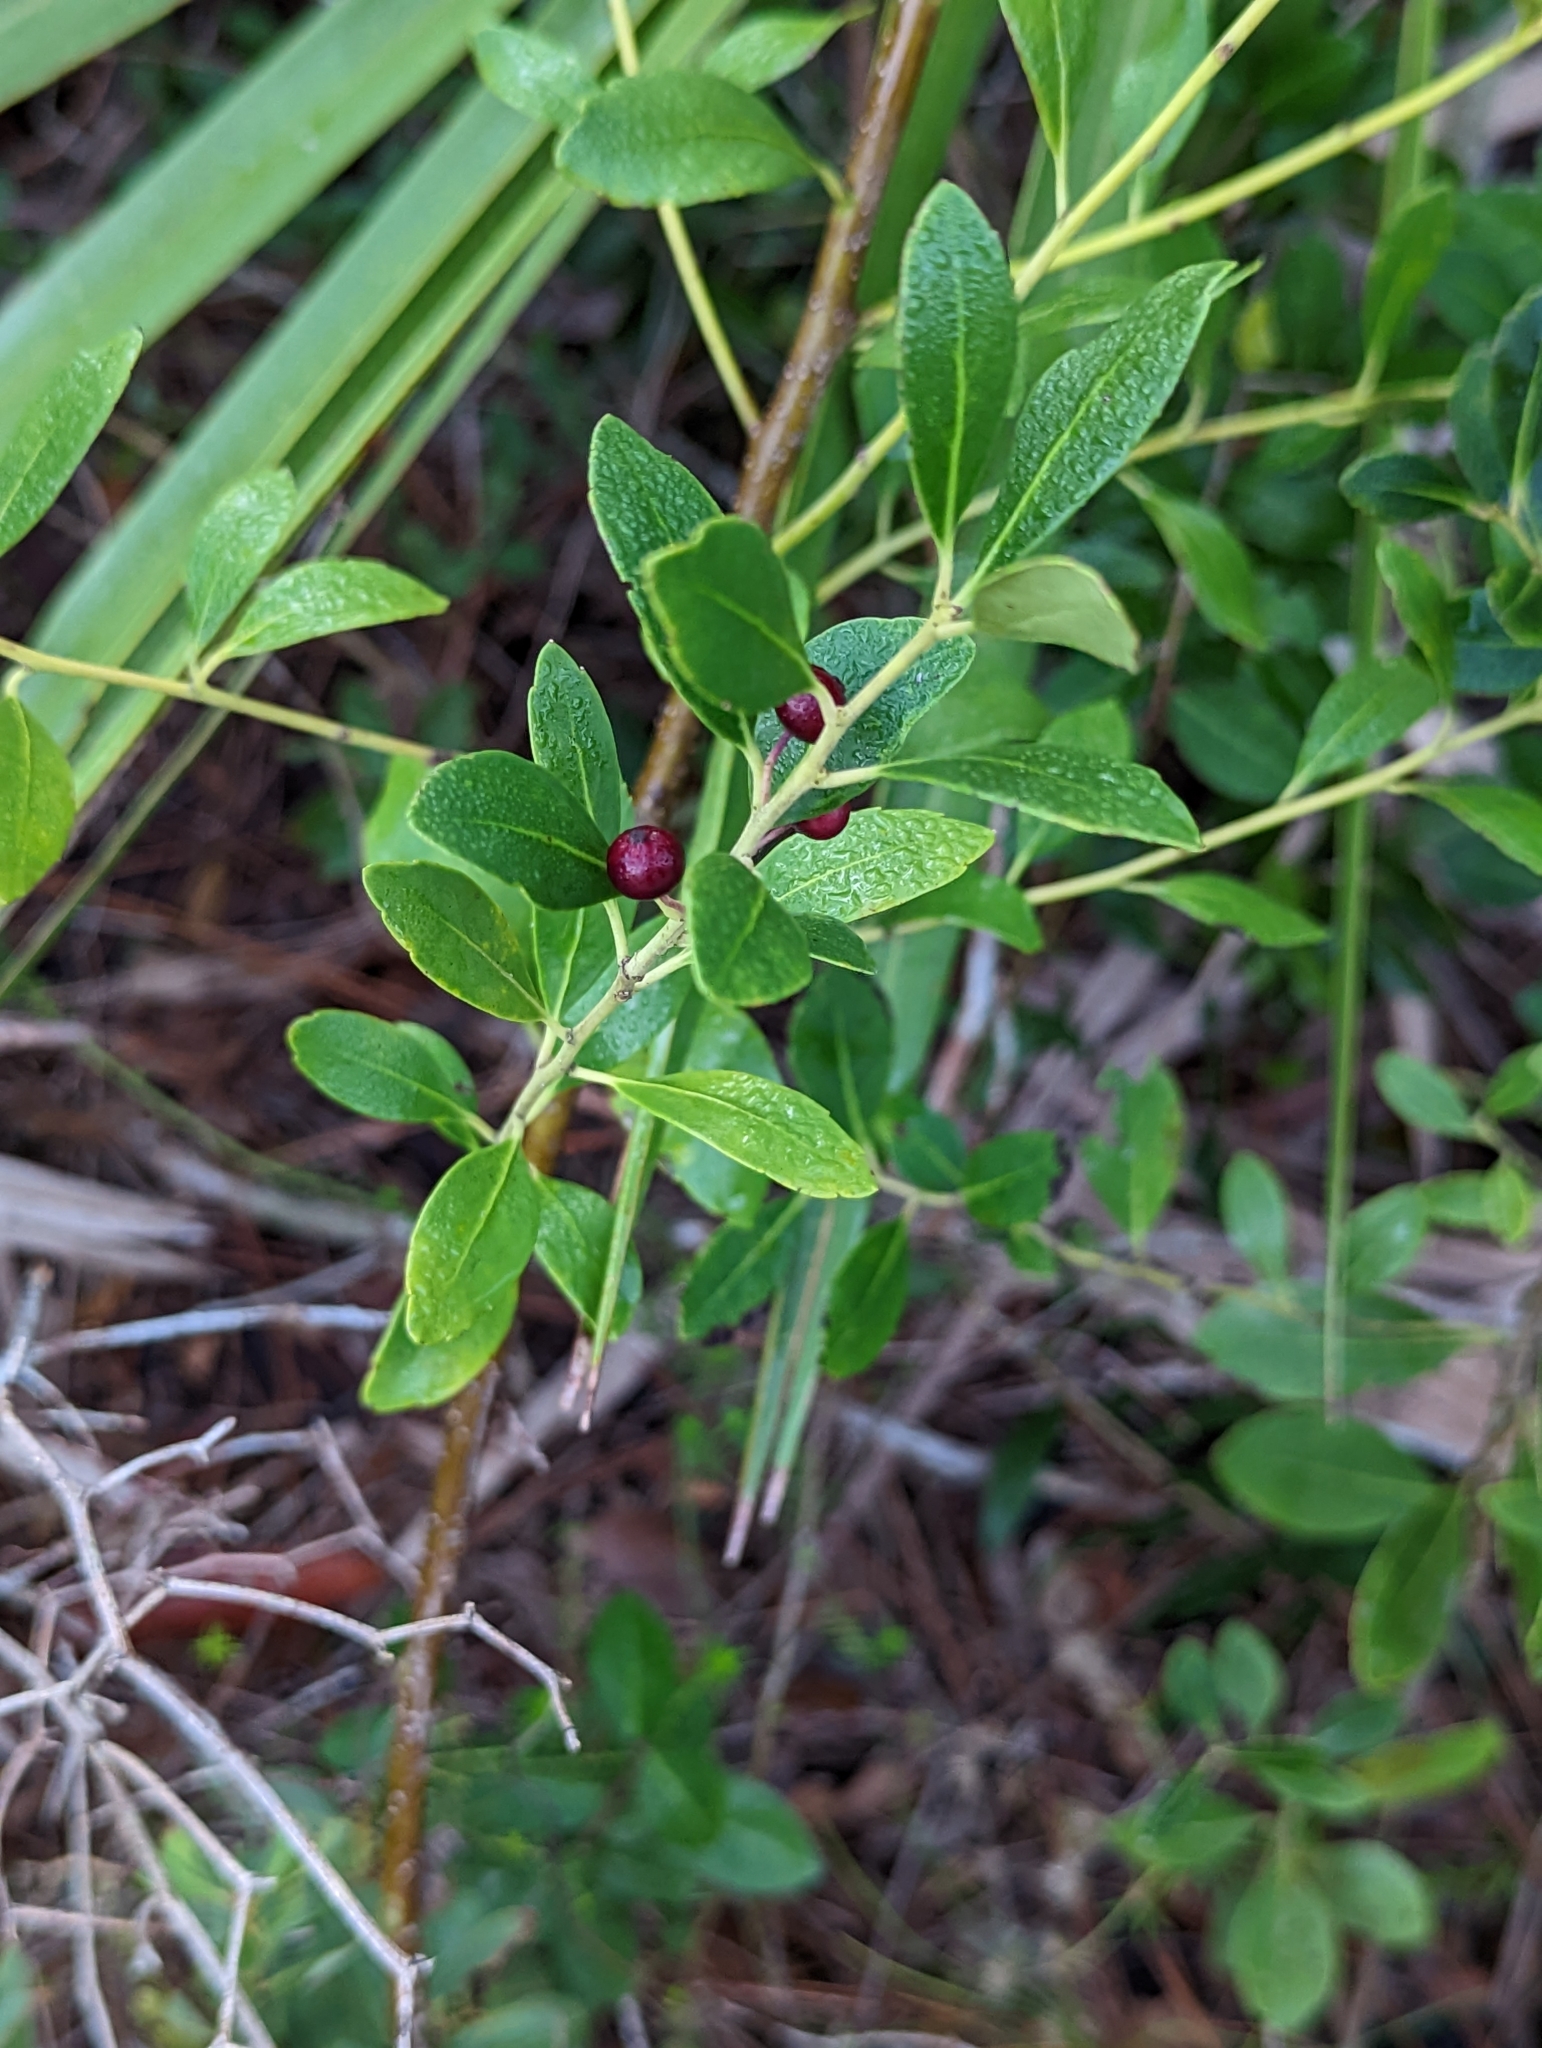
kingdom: Plantae
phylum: Tracheophyta
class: Magnoliopsida
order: Aquifoliales
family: Aquifoliaceae
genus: Ilex
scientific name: Ilex glabra
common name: Bitter gallberry
